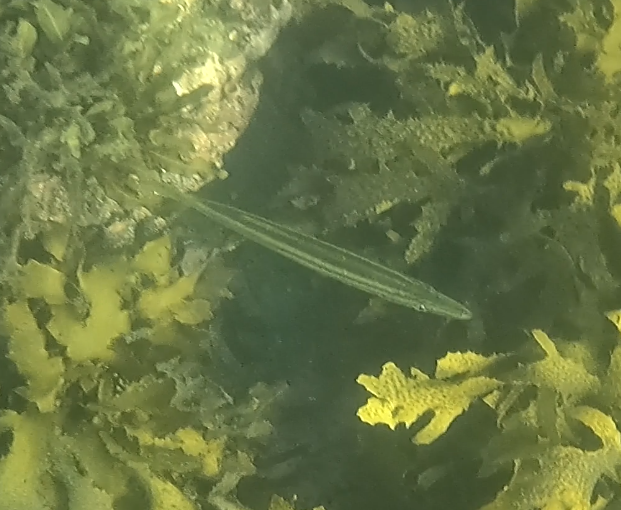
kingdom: Animalia
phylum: Chordata
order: Perciformes
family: Sphyraenidae
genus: Sphyraena
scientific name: Sphyraena obtusata
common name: Obtuse barracuda
